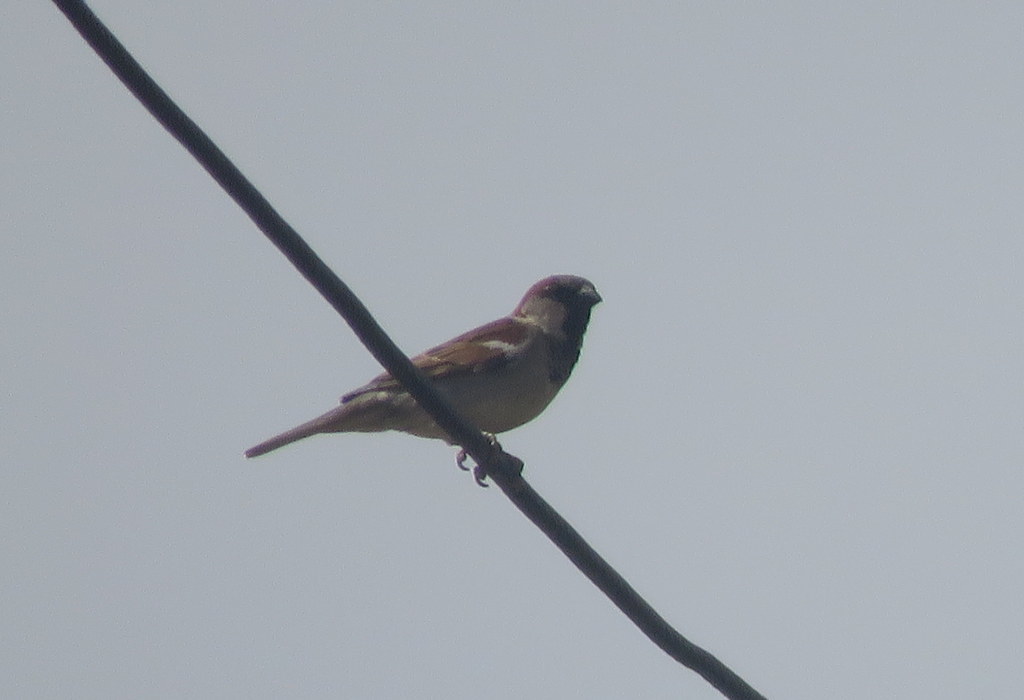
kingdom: Animalia
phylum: Chordata
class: Aves
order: Passeriformes
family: Passeridae
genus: Passer
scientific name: Passer domesticus
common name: House sparrow
